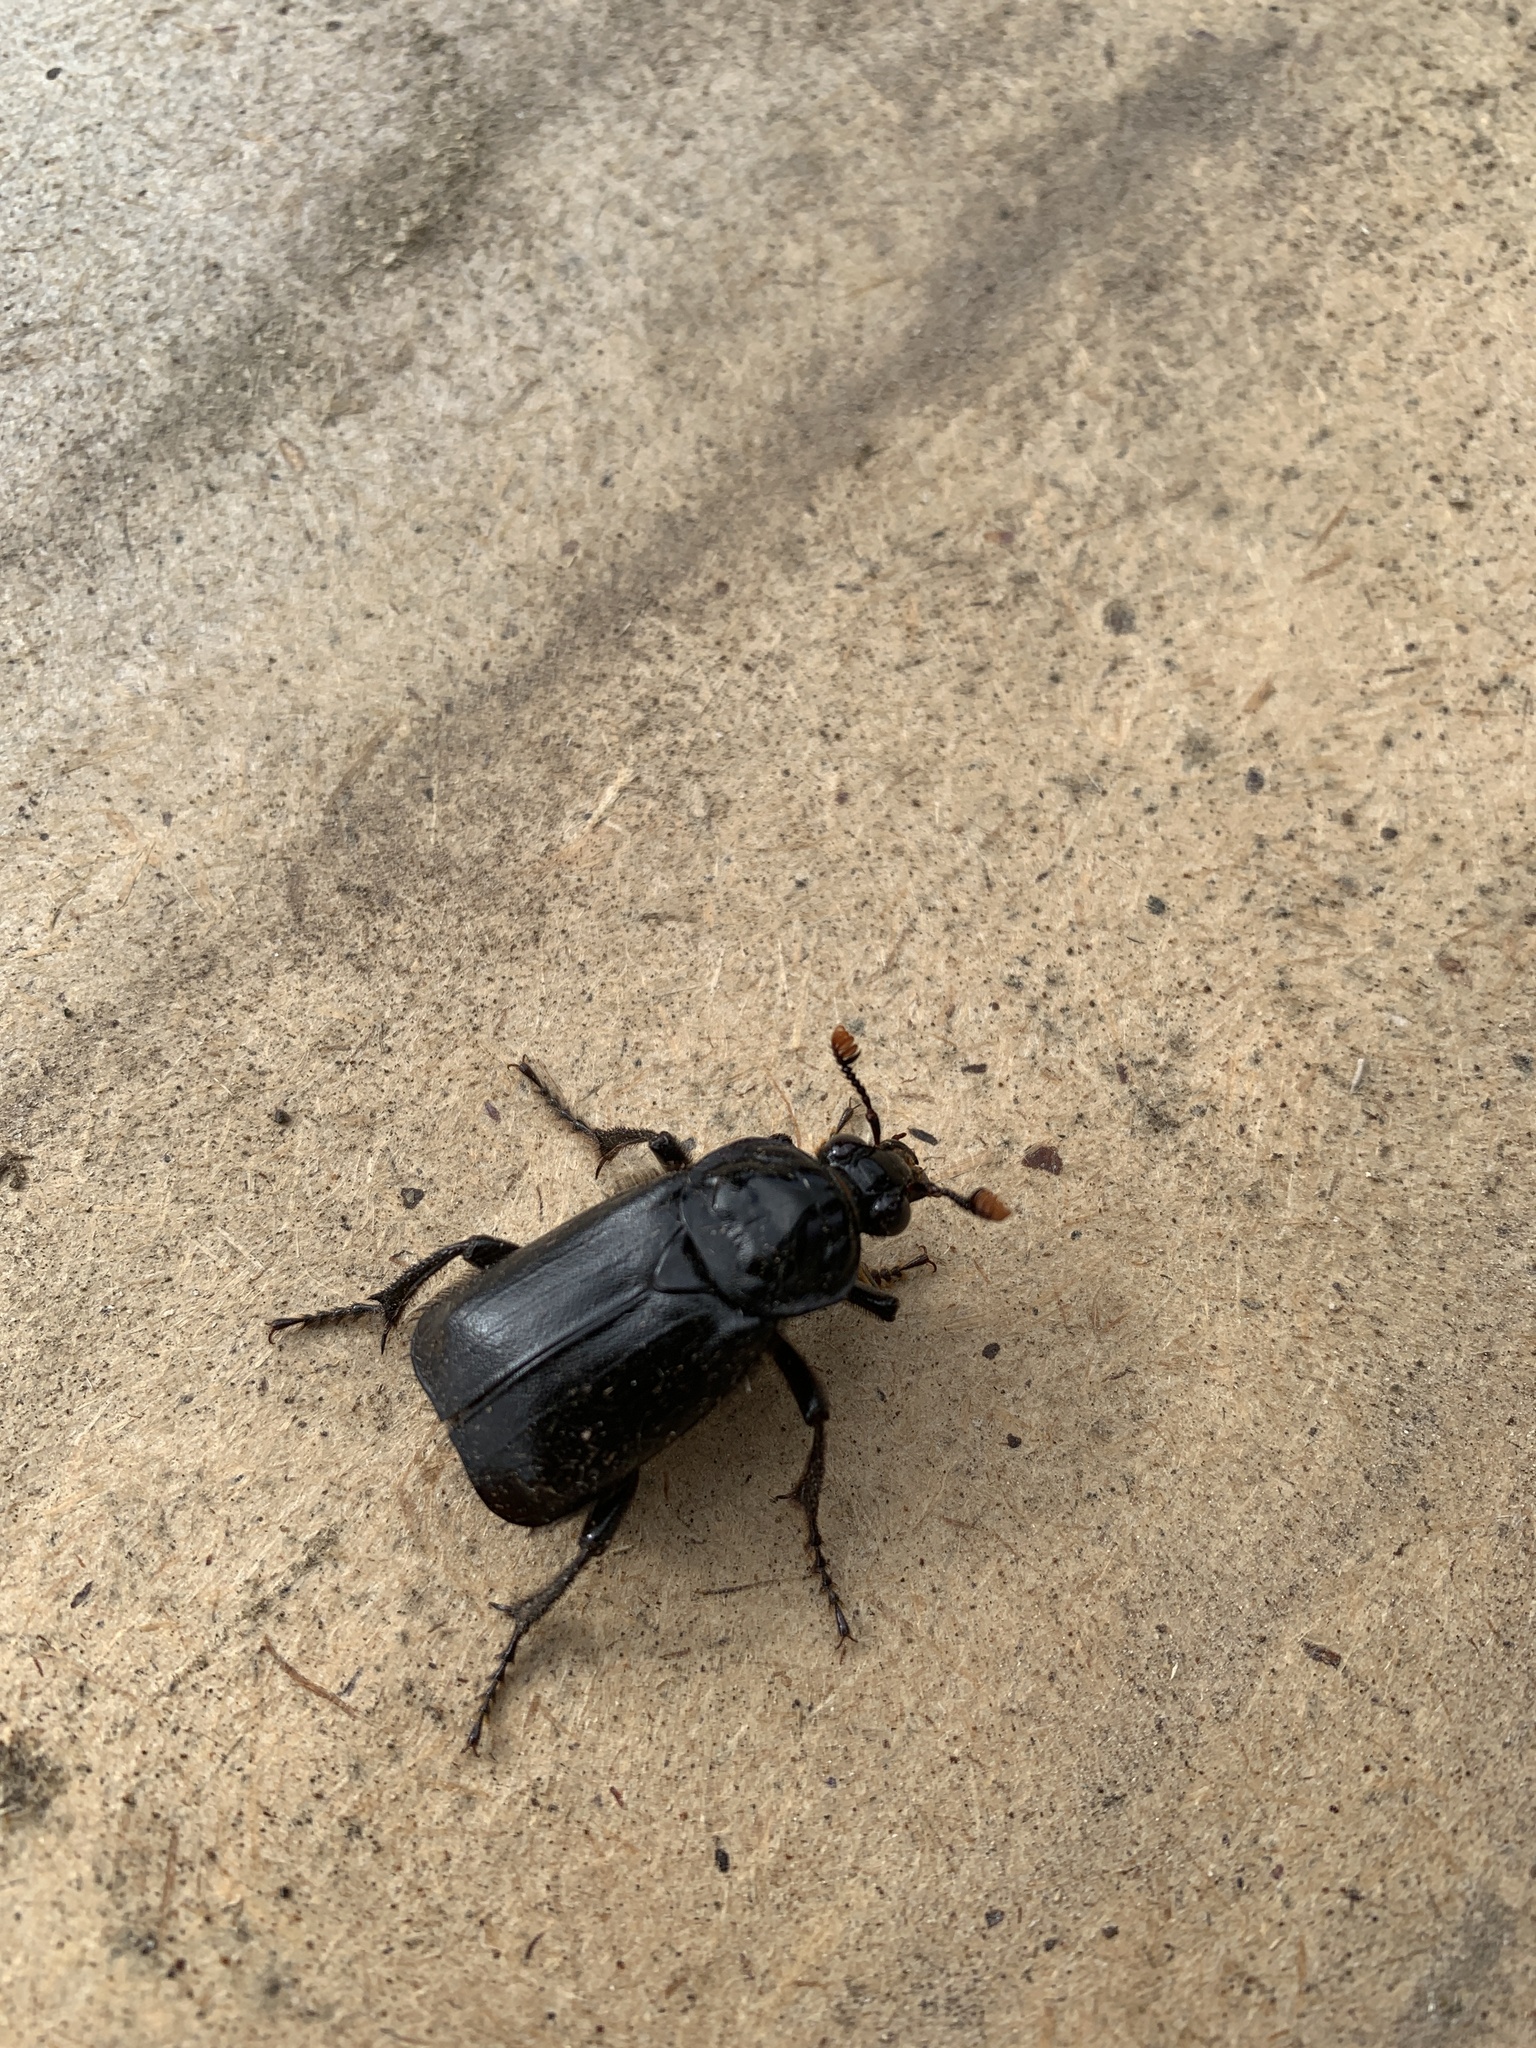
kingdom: Animalia
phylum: Arthropoda
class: Insecta
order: Coleoptera
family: Staphylinidae
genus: Nicrophorus
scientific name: Nicrophorus humator
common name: Black sexton beetle
